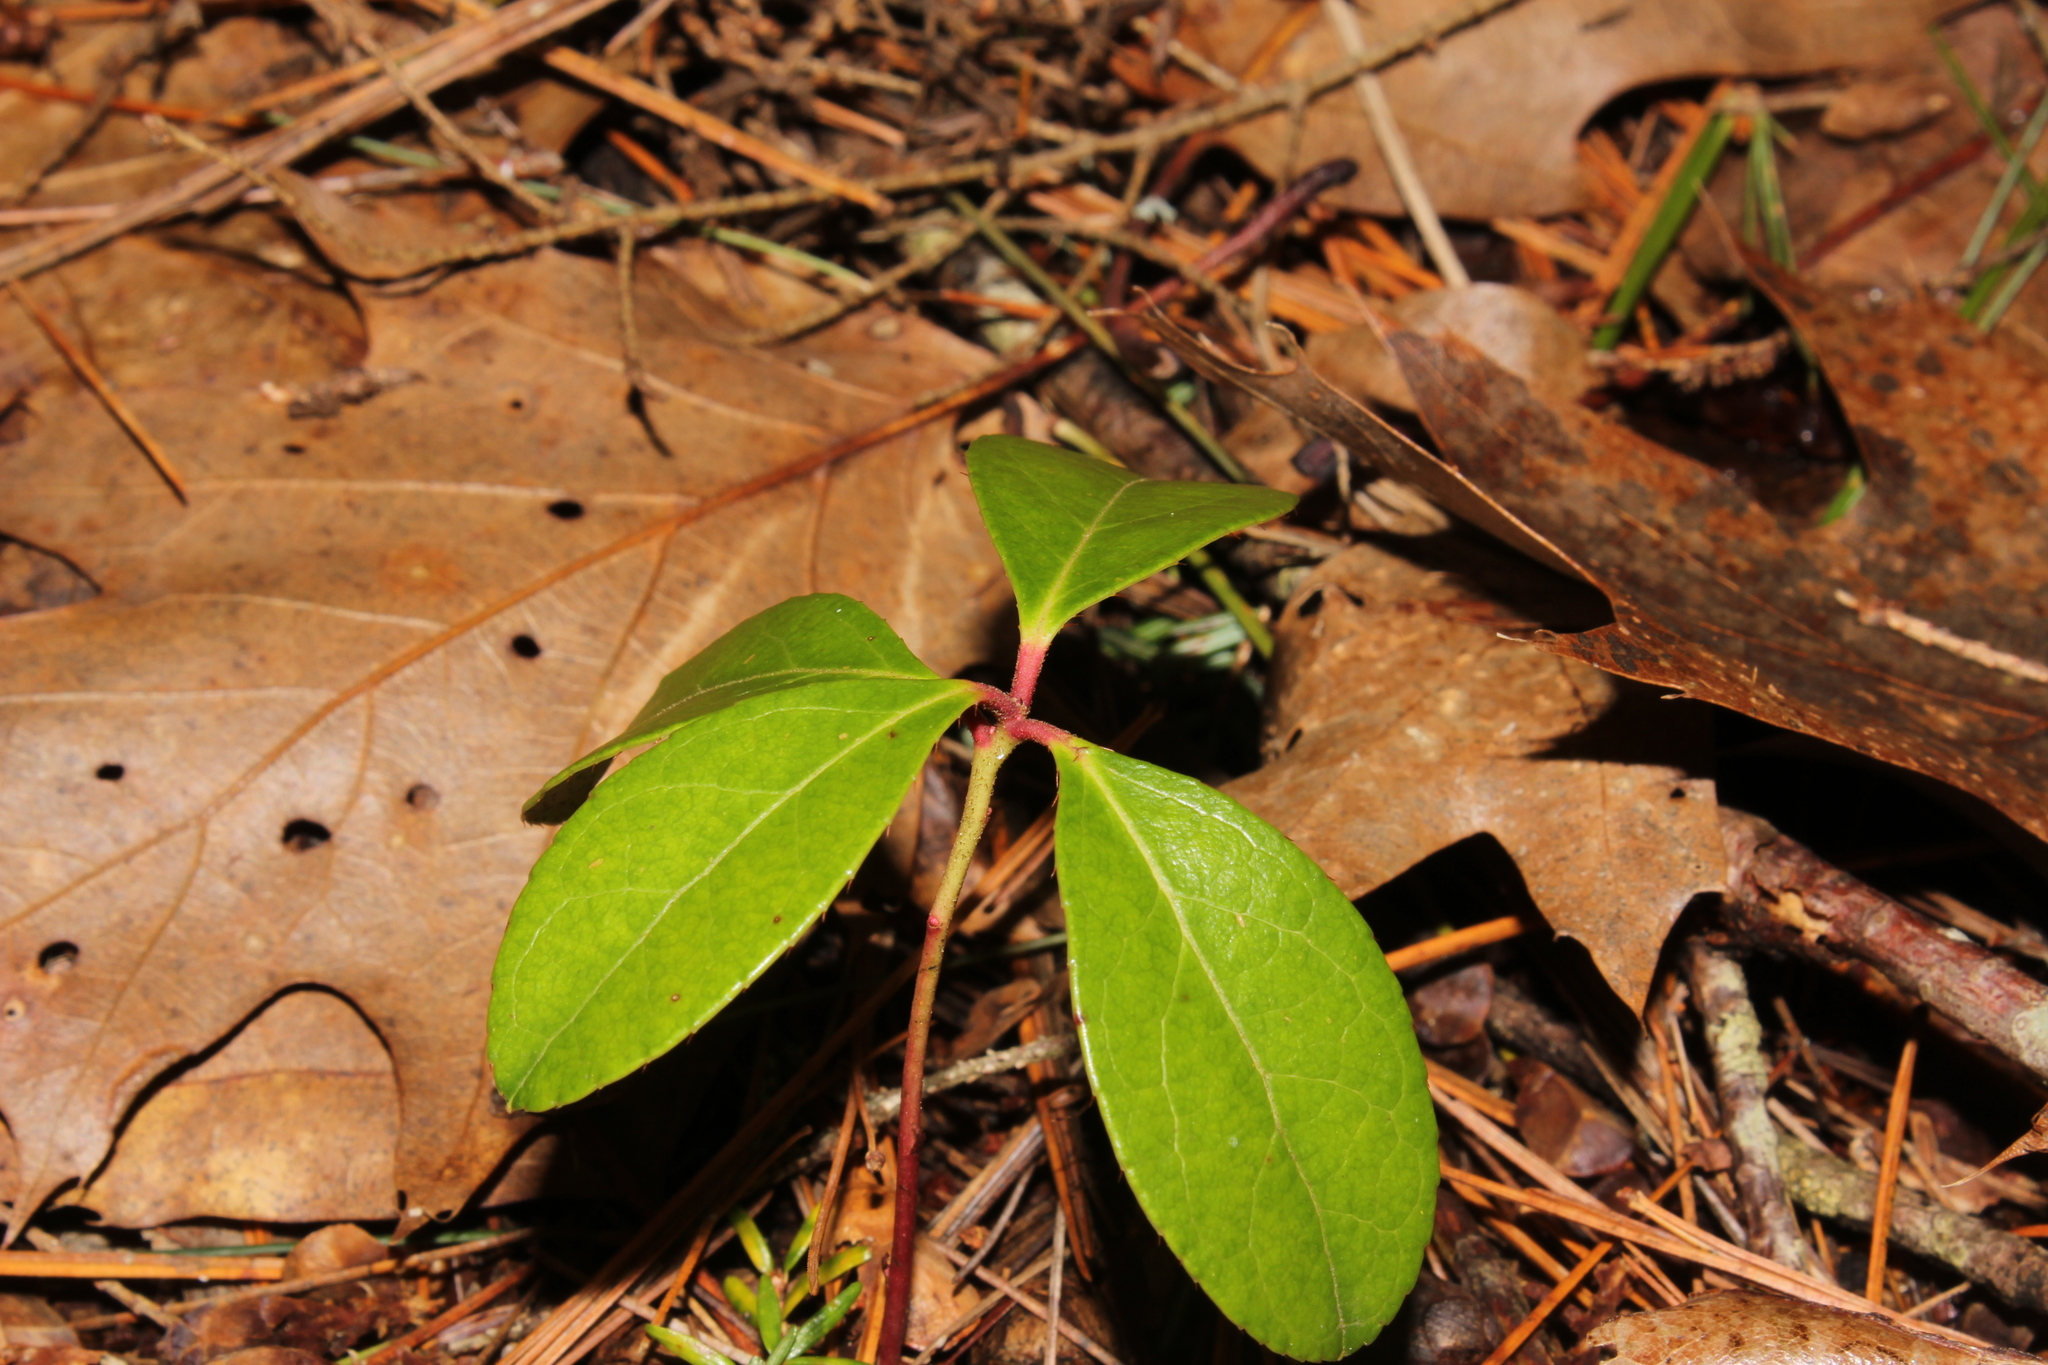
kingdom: Plantae
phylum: Tracheophyta
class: Magnoliopsida
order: Ericales
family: Ericaceae
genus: Gaultheria
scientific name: Gaultheria procumbens
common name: Checkerberry
